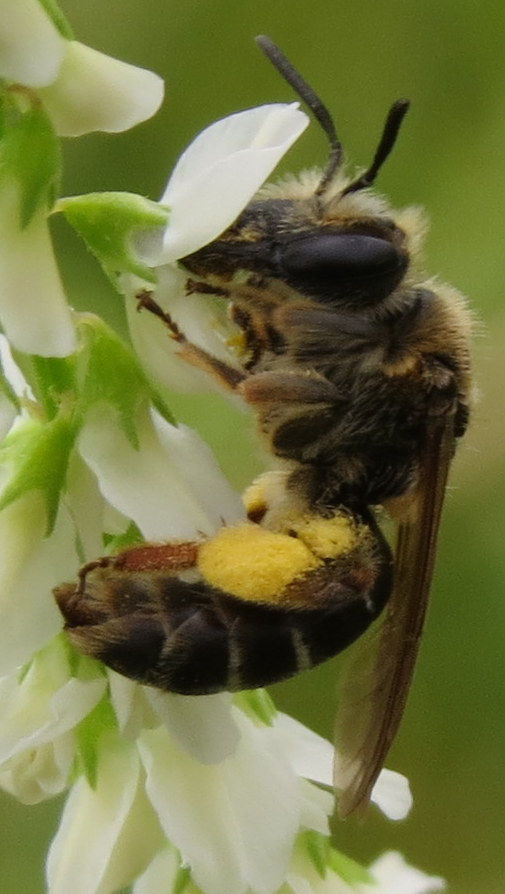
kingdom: Animalia
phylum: Arthropoda
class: Insecta
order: Hymenoptera
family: Andrenidae
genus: Andrena
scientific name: Andrena wilkella
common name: Wilke's mining bee
